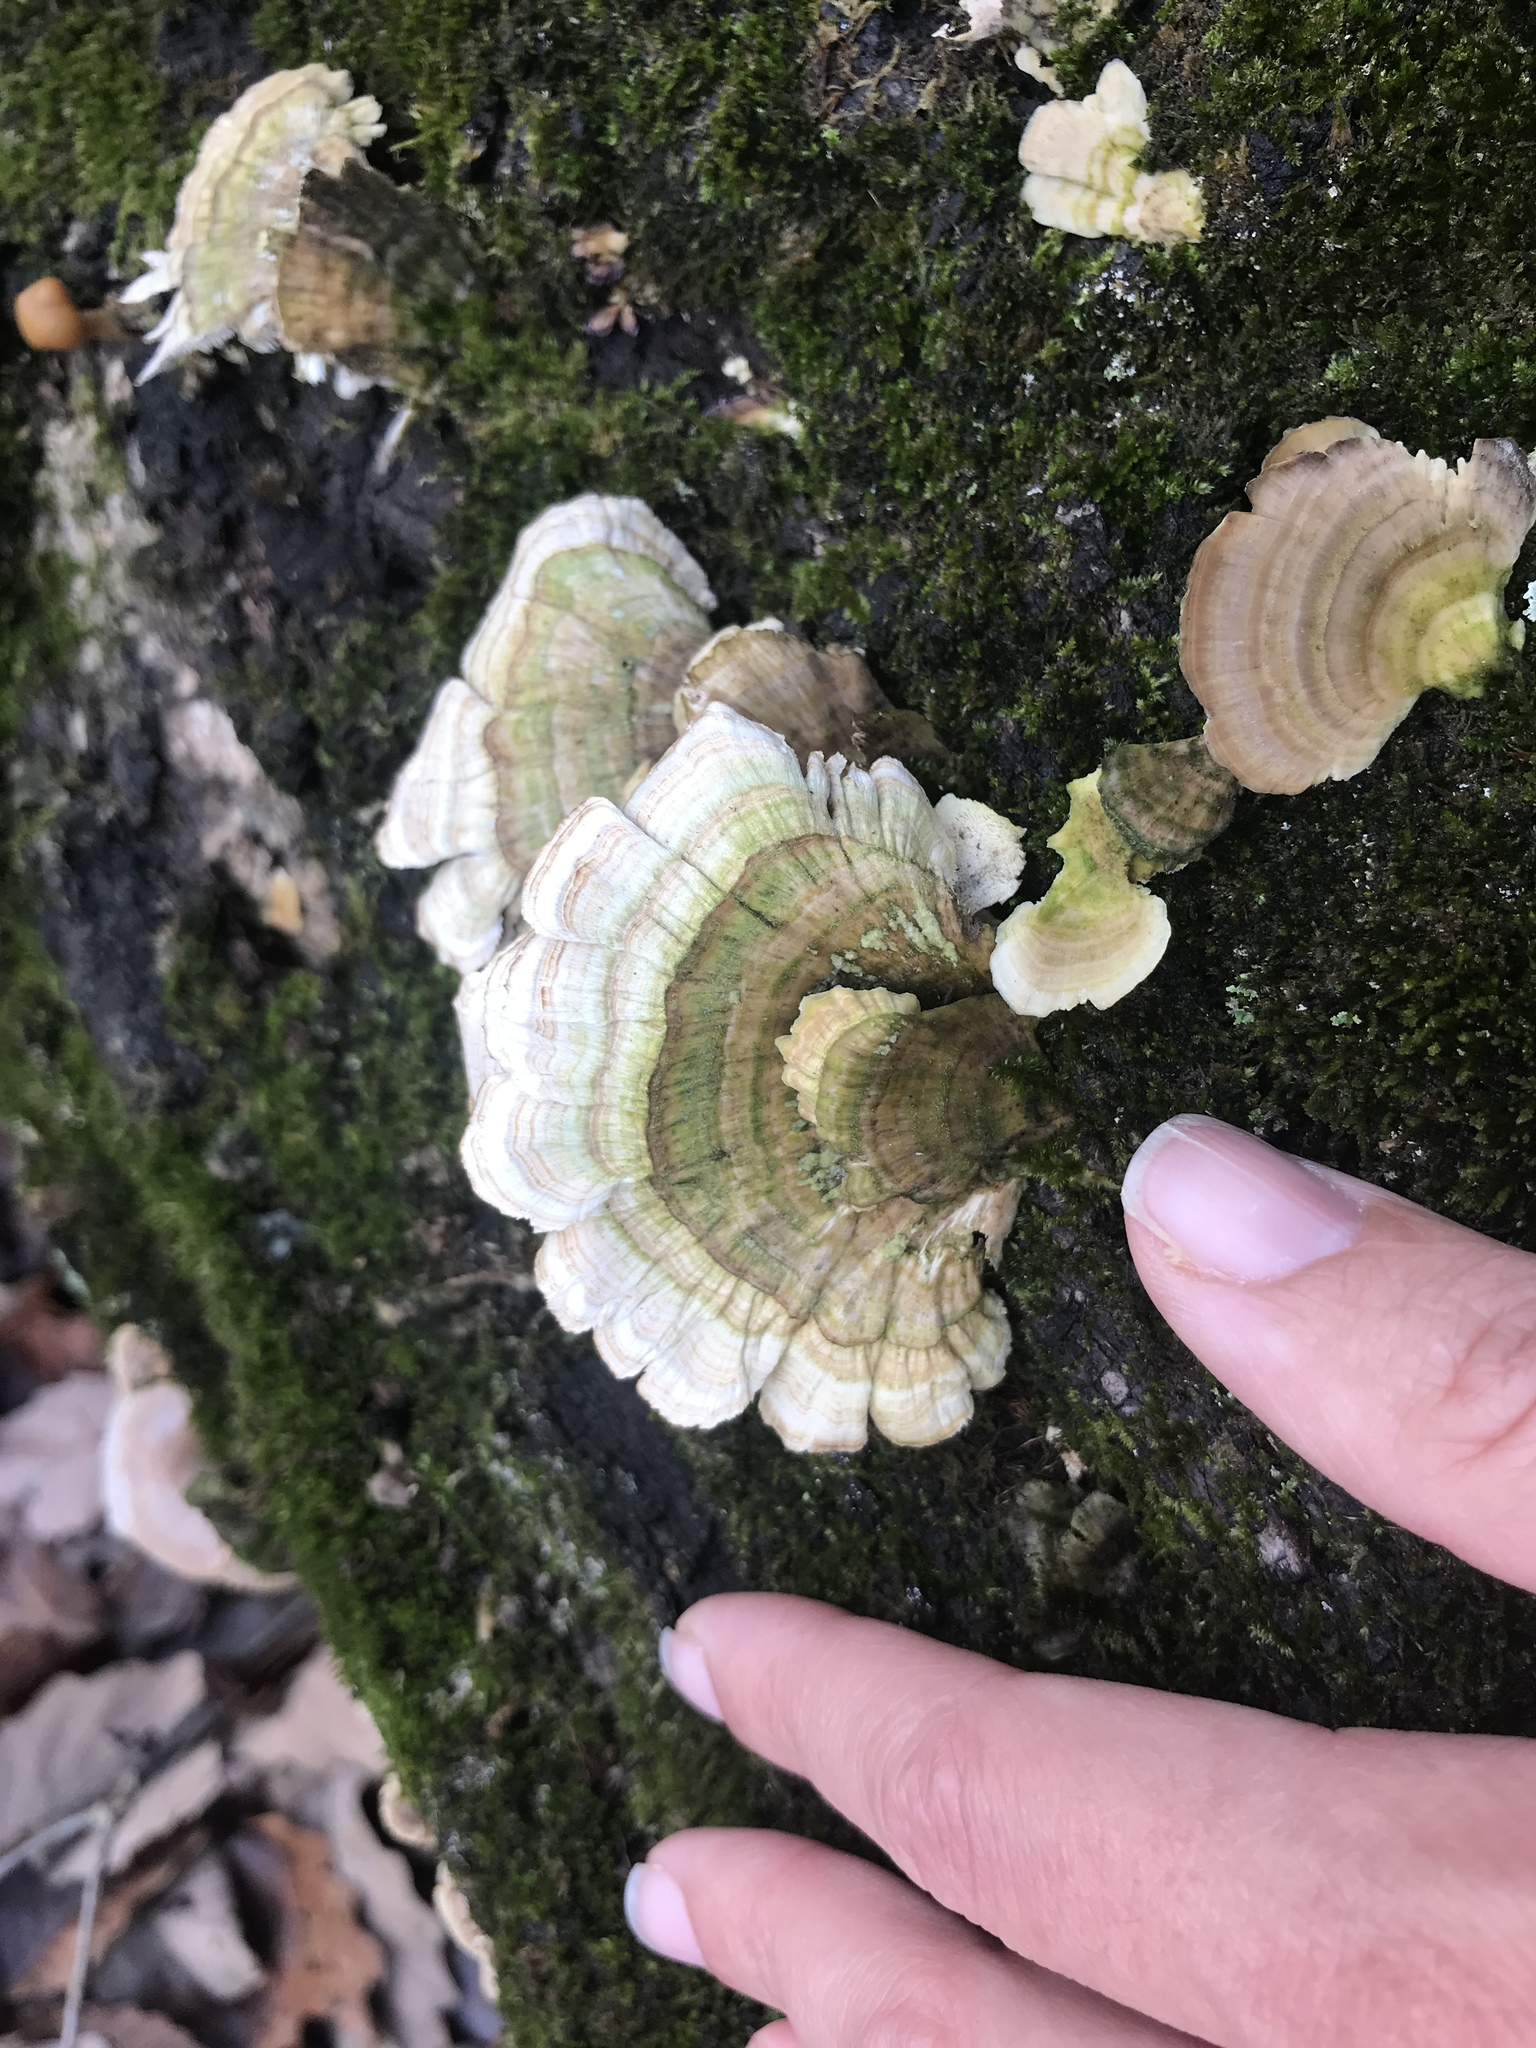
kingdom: Fungi
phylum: Basidiomycota
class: Agaricomycetes
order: Polyporales
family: Polyporaceae
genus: Trametes
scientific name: Trametes versicolor
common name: Turkeytail
